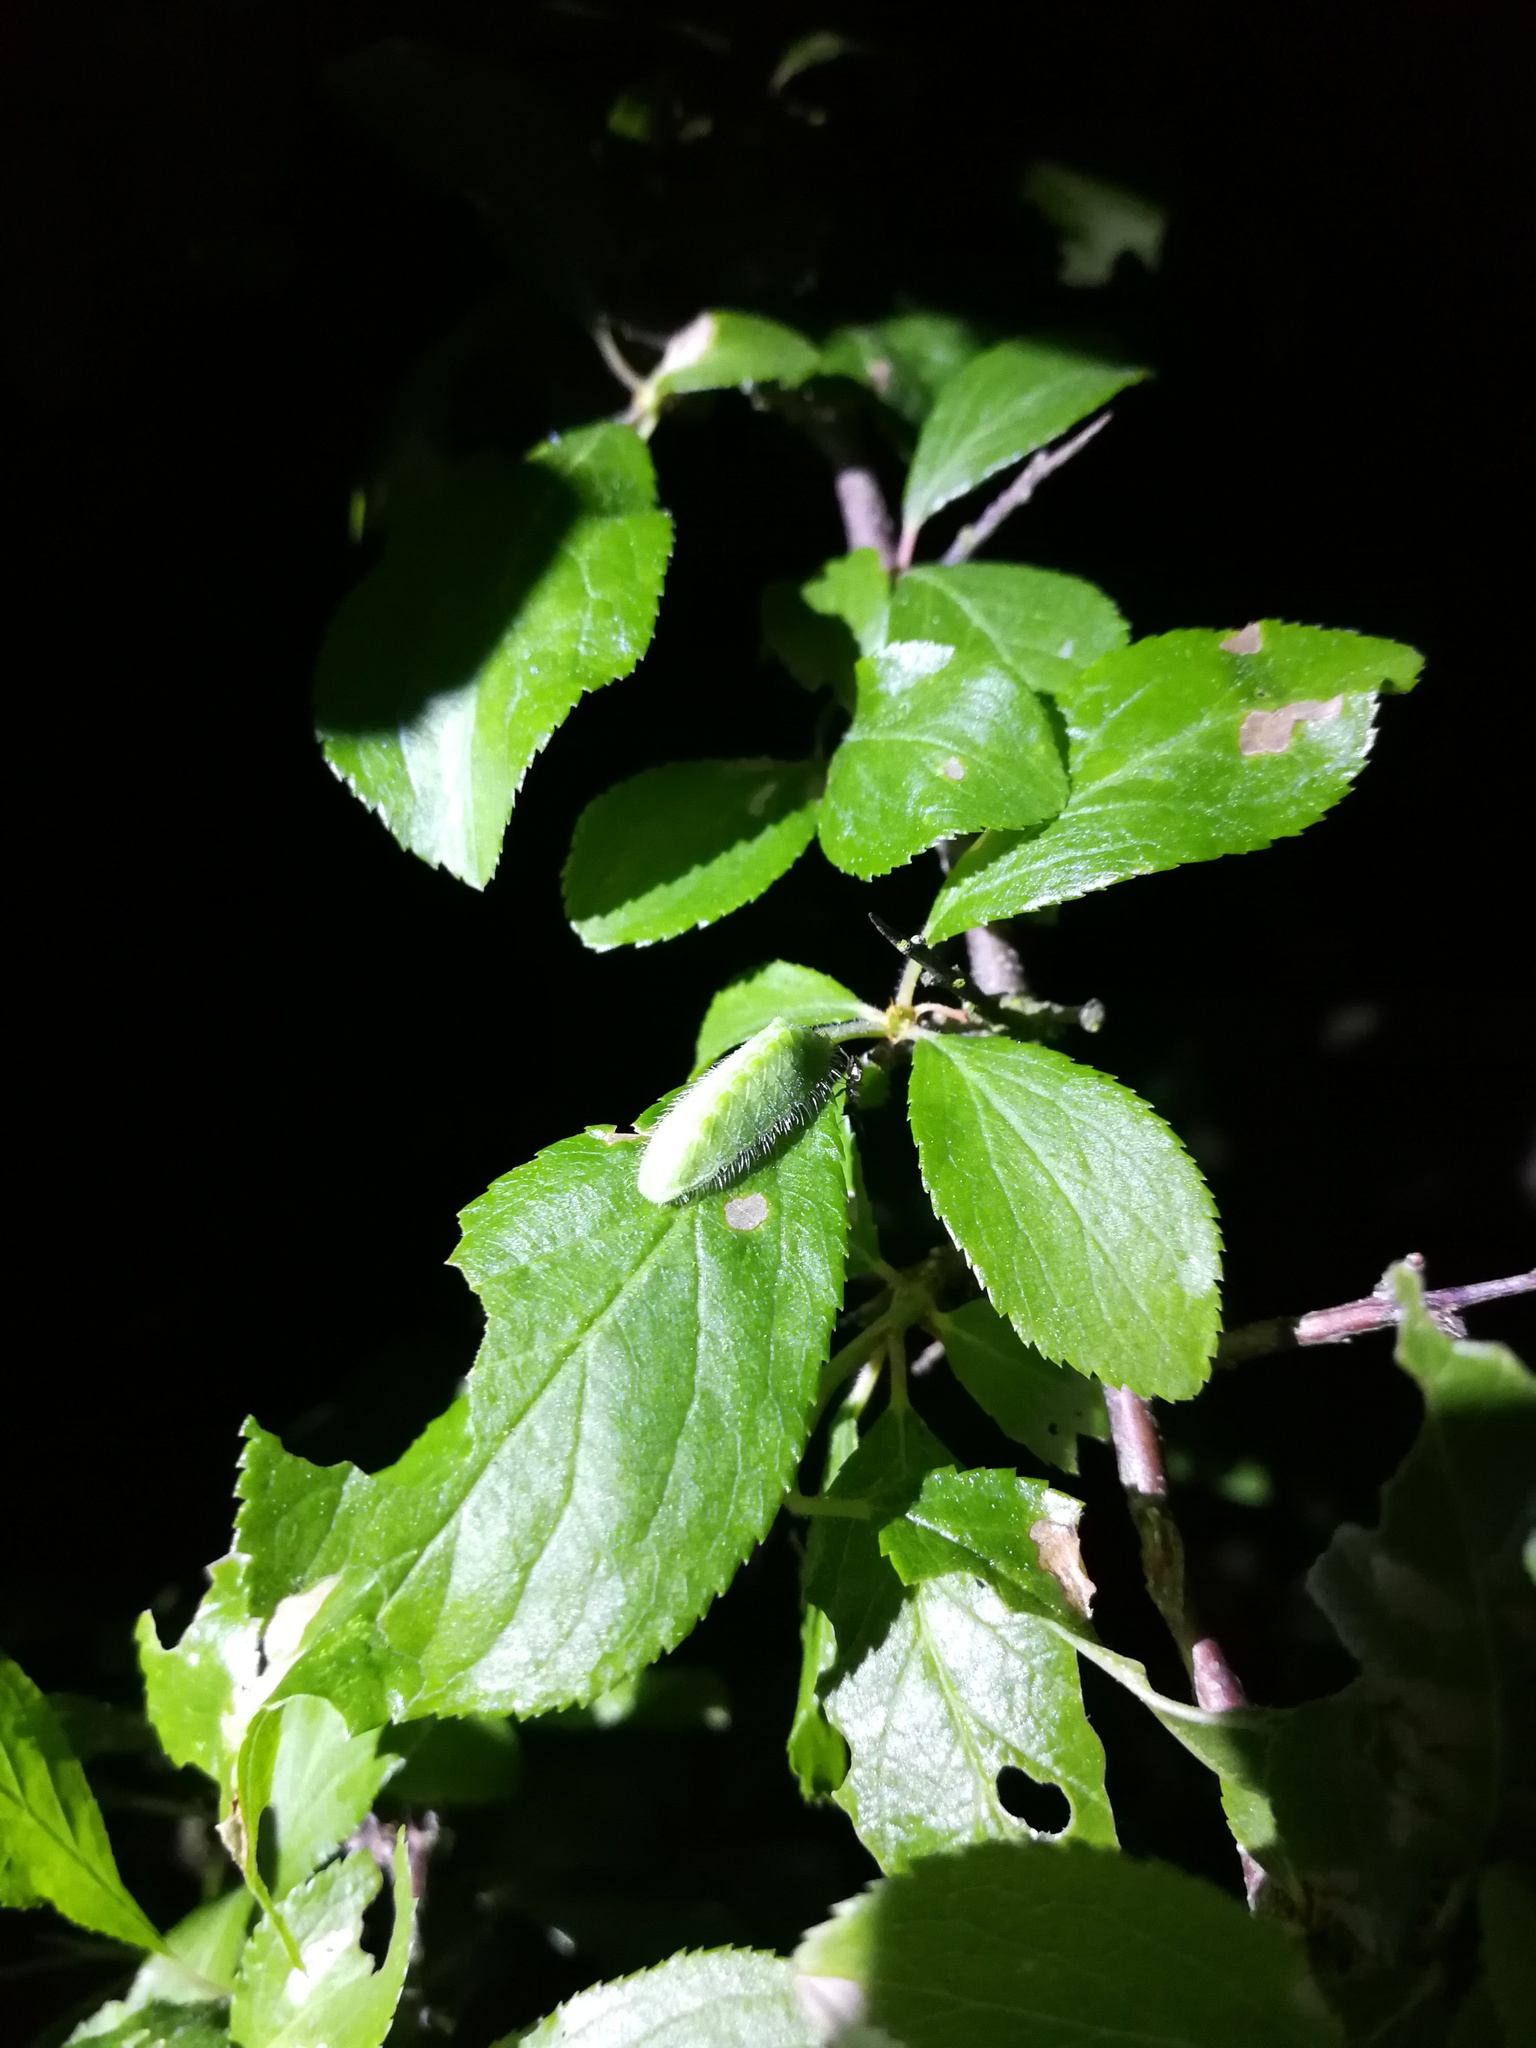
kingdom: Animalia
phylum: Arthropoda
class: Insecta
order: Lepidoptera
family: Lycaenidae
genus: Thecla
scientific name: Thecla betulae
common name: Brown hairstreak
